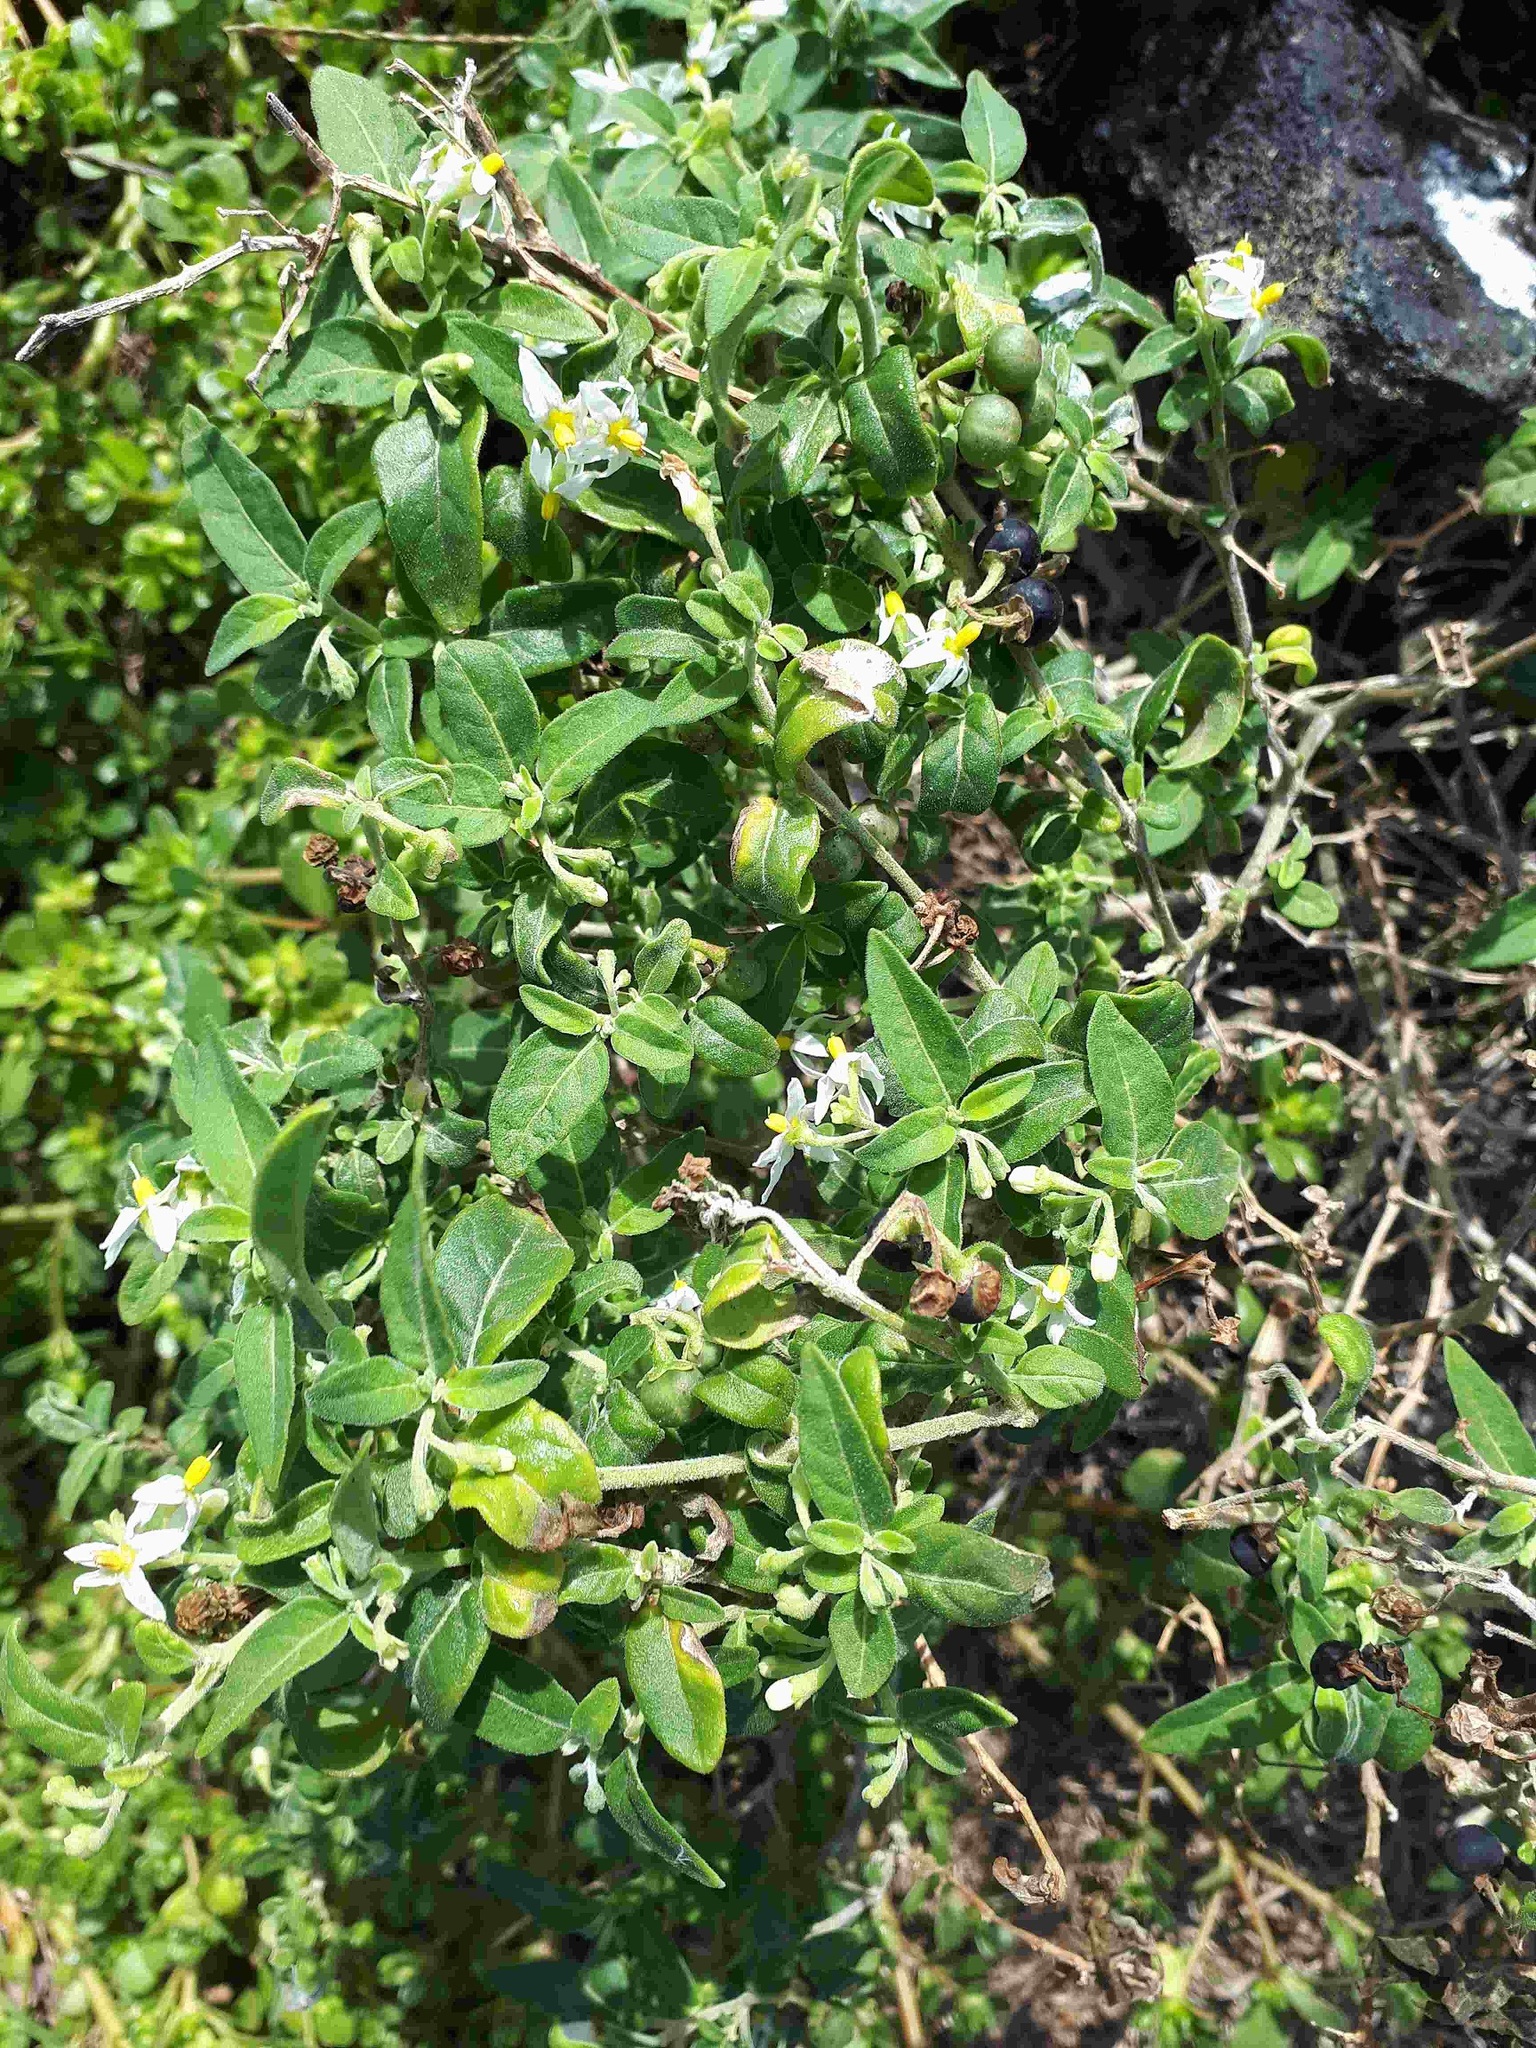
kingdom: Plantae
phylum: Tracheophyta
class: Magnoliopsida
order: Solanales
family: Solanaceae
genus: Solanum
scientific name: Solanum chenopodioides
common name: Tall nightshade
